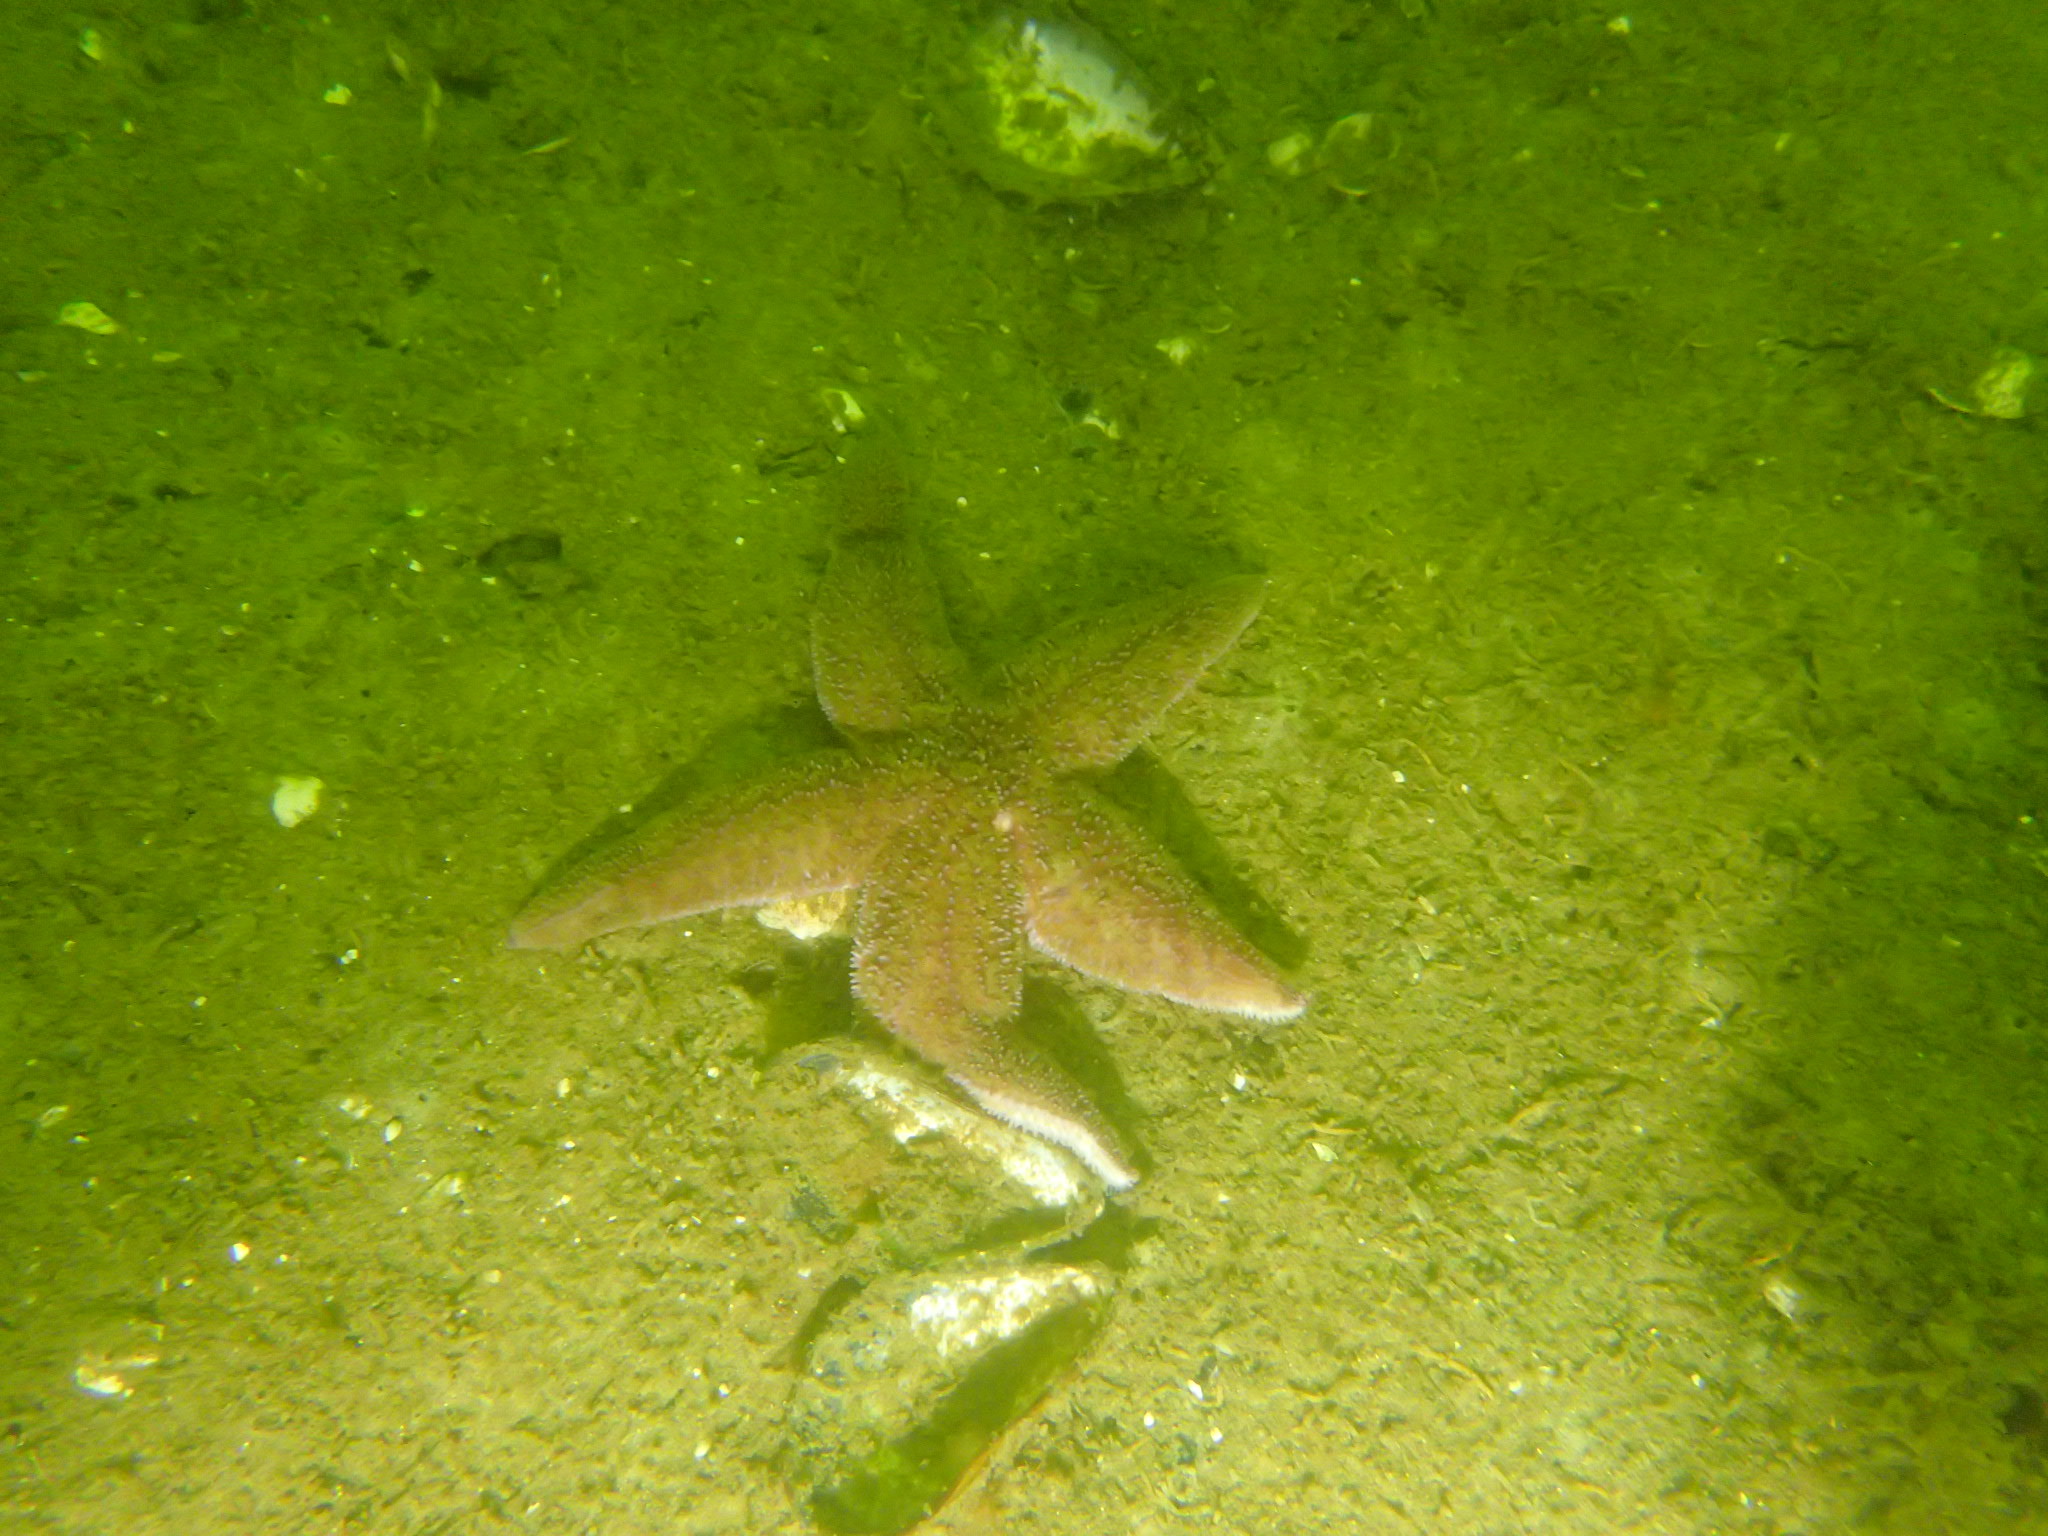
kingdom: Animalia
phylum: Echinodermata
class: Asteroidea
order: Forcipulatida
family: Asteriidae
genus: Asterias
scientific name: Asterias rubens
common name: Common starfish
